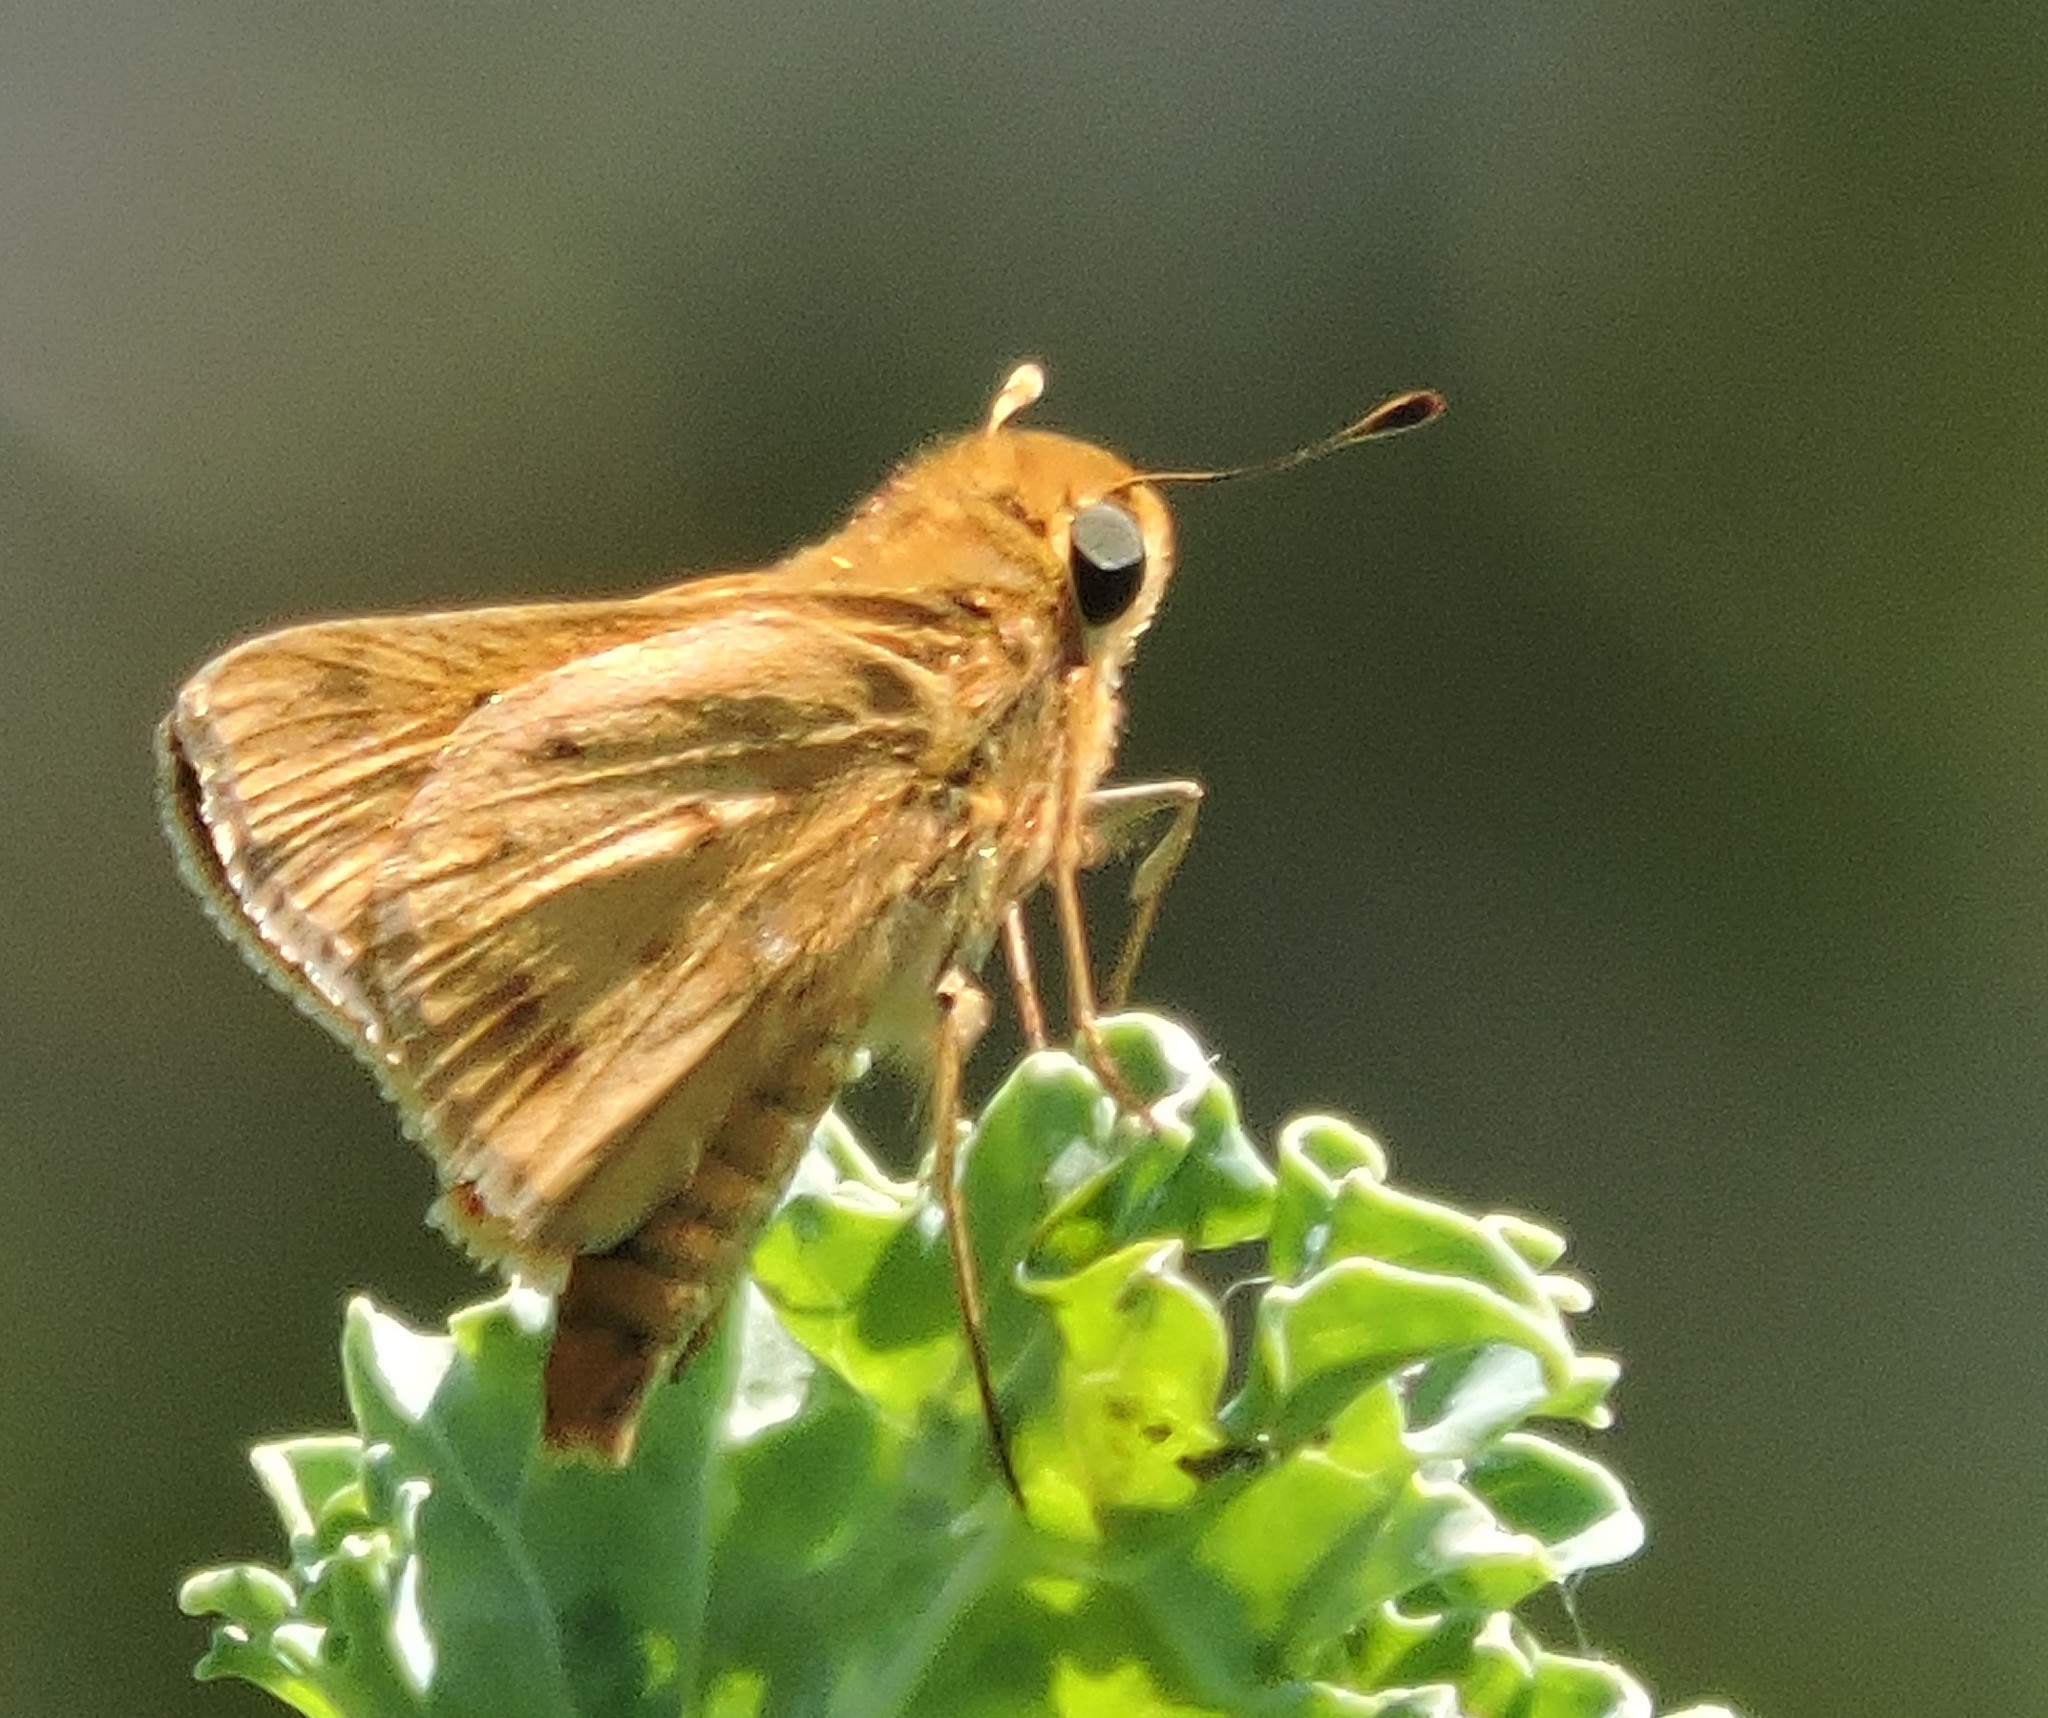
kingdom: Animalia
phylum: Arthropoda
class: Insecta
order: Lepidoptera
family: Hesperiidae
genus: Hylephila
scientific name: Hylephila phyleus
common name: Fiery skipper
